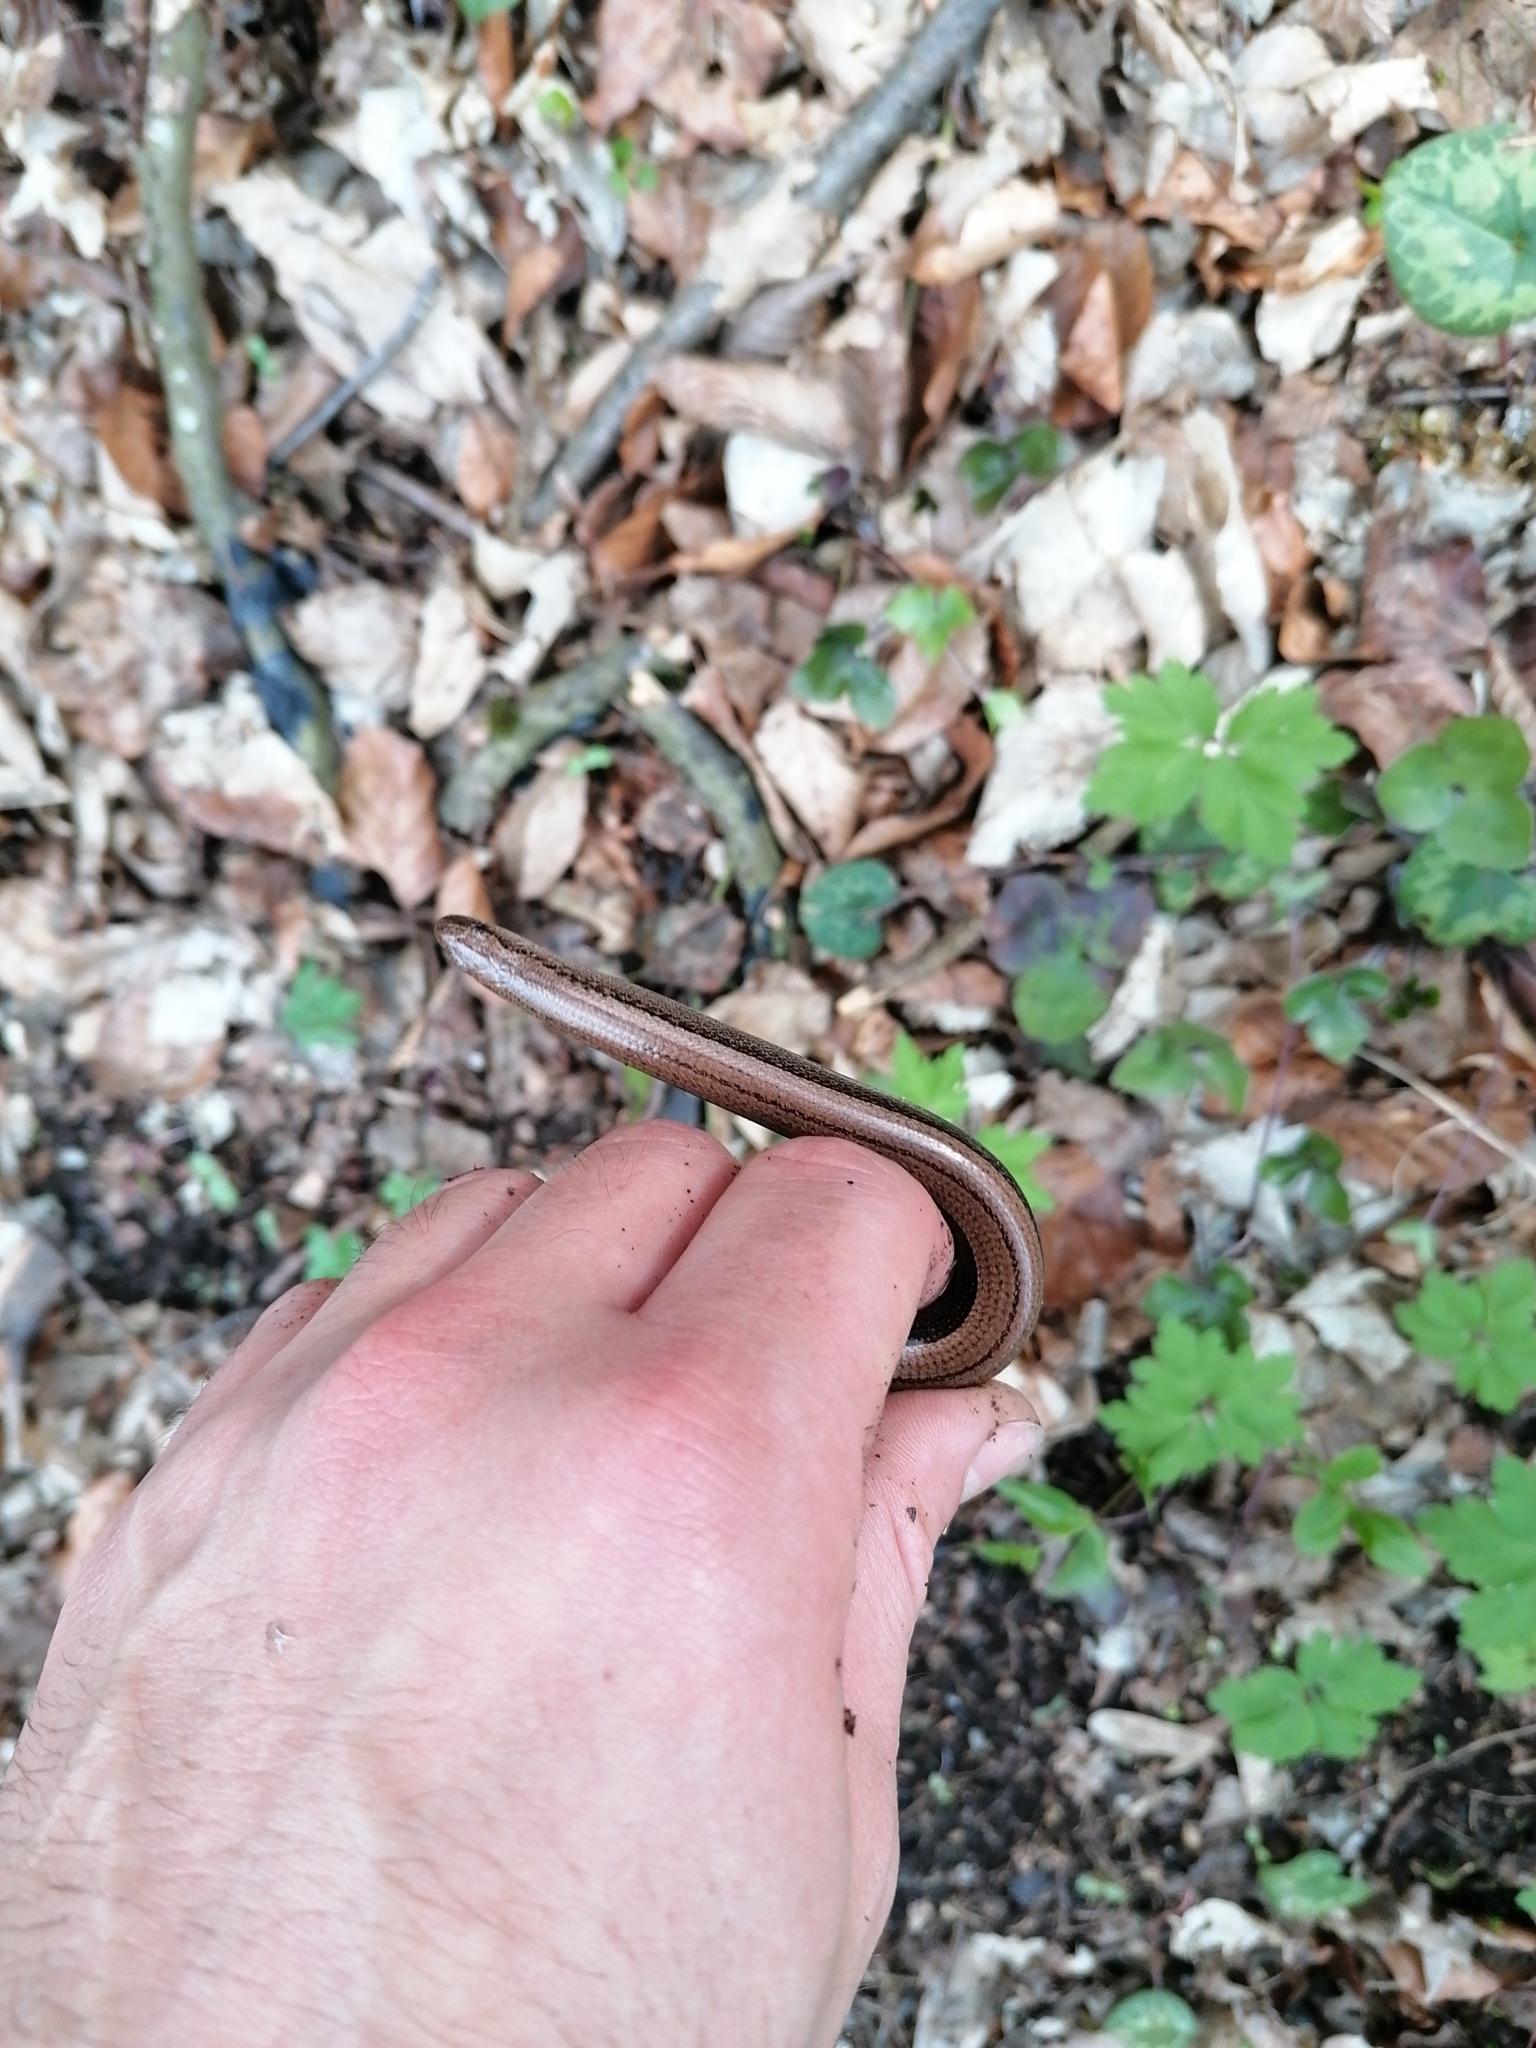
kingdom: Animalia
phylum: Chordata
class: Squamata
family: Anguidae
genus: Anguis
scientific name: Anguis fragilis
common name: Slow worm
